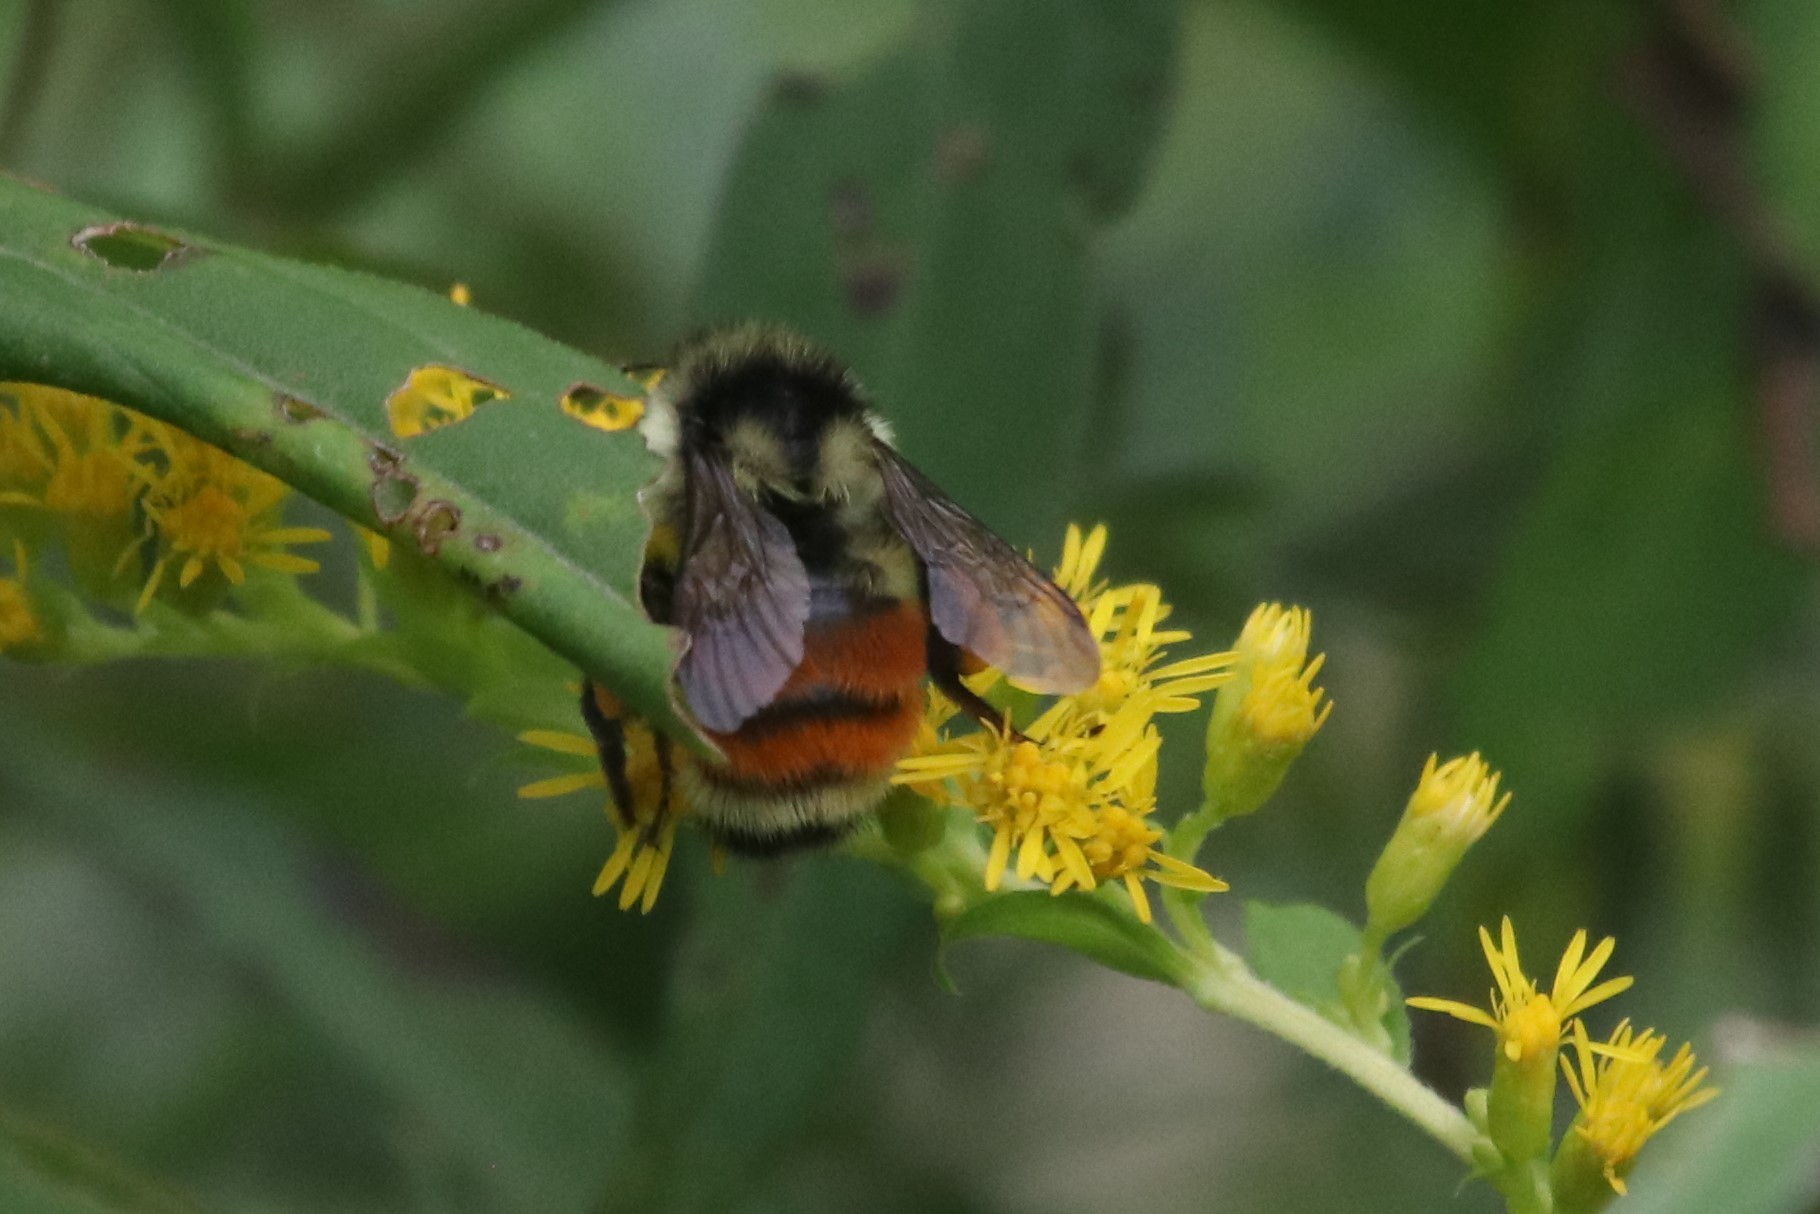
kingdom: Animalia
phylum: Arthropoda
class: Insecta
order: Hymenoptera
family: Apidae
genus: Bombus
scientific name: Bombus ternarius
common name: Tri-colored bumble bee
